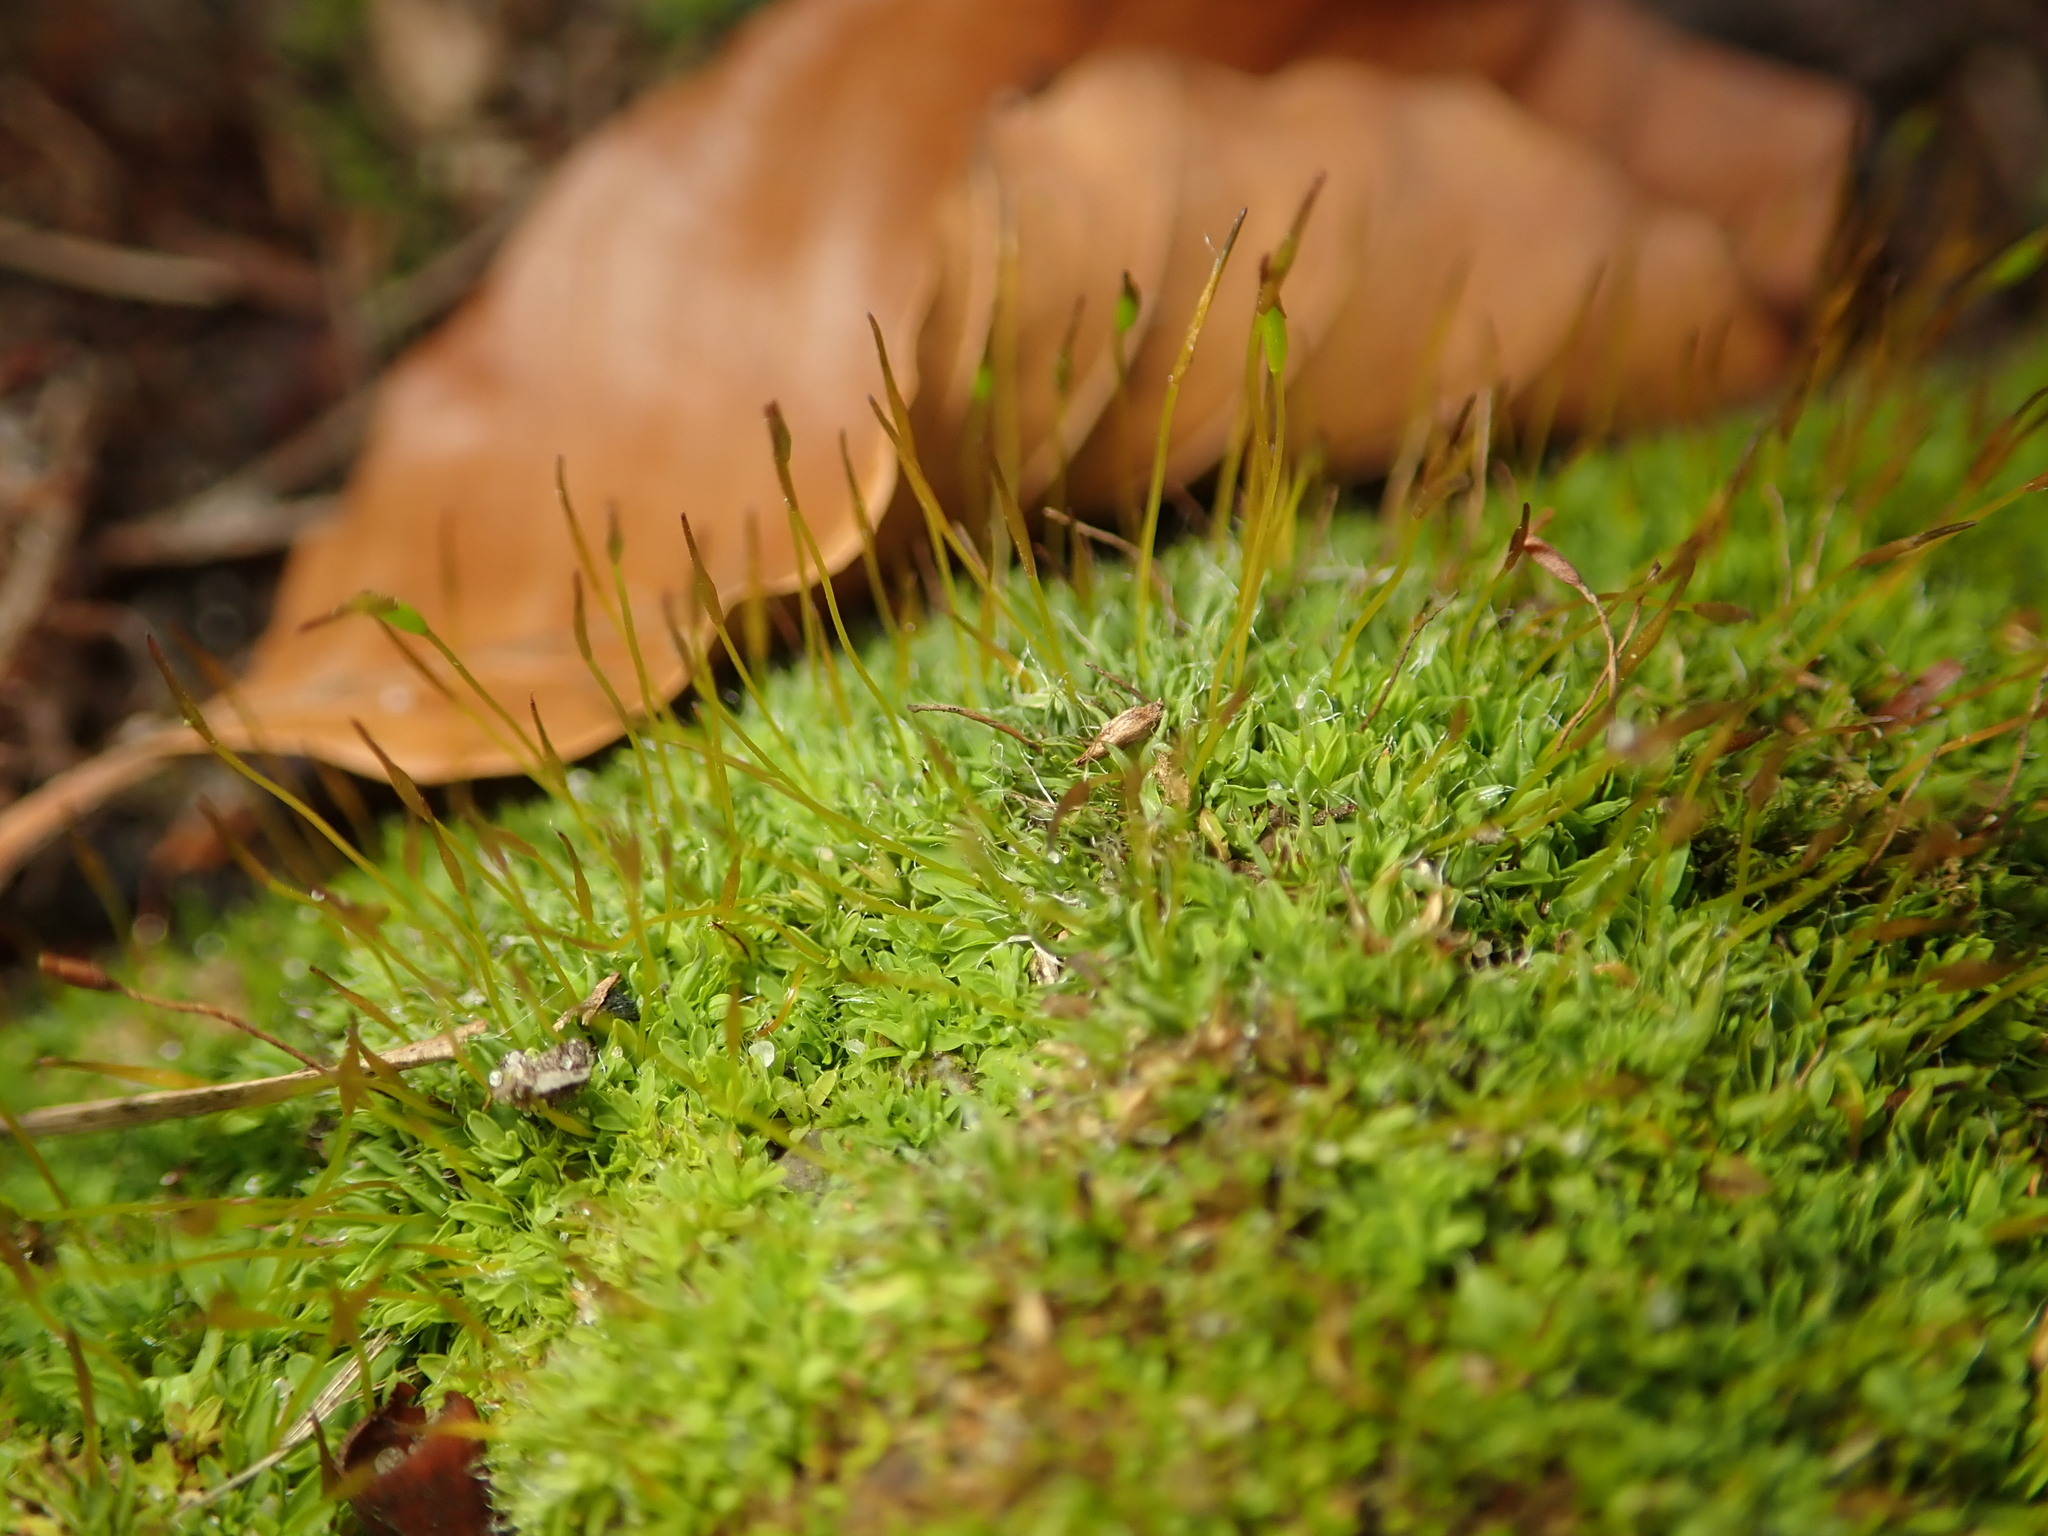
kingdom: Plantae
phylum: Bryophyta
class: Bryopsida
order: Pottiales
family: Pottiaceae
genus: Tortula
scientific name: Tortula muralis
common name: Wall screw-moss
